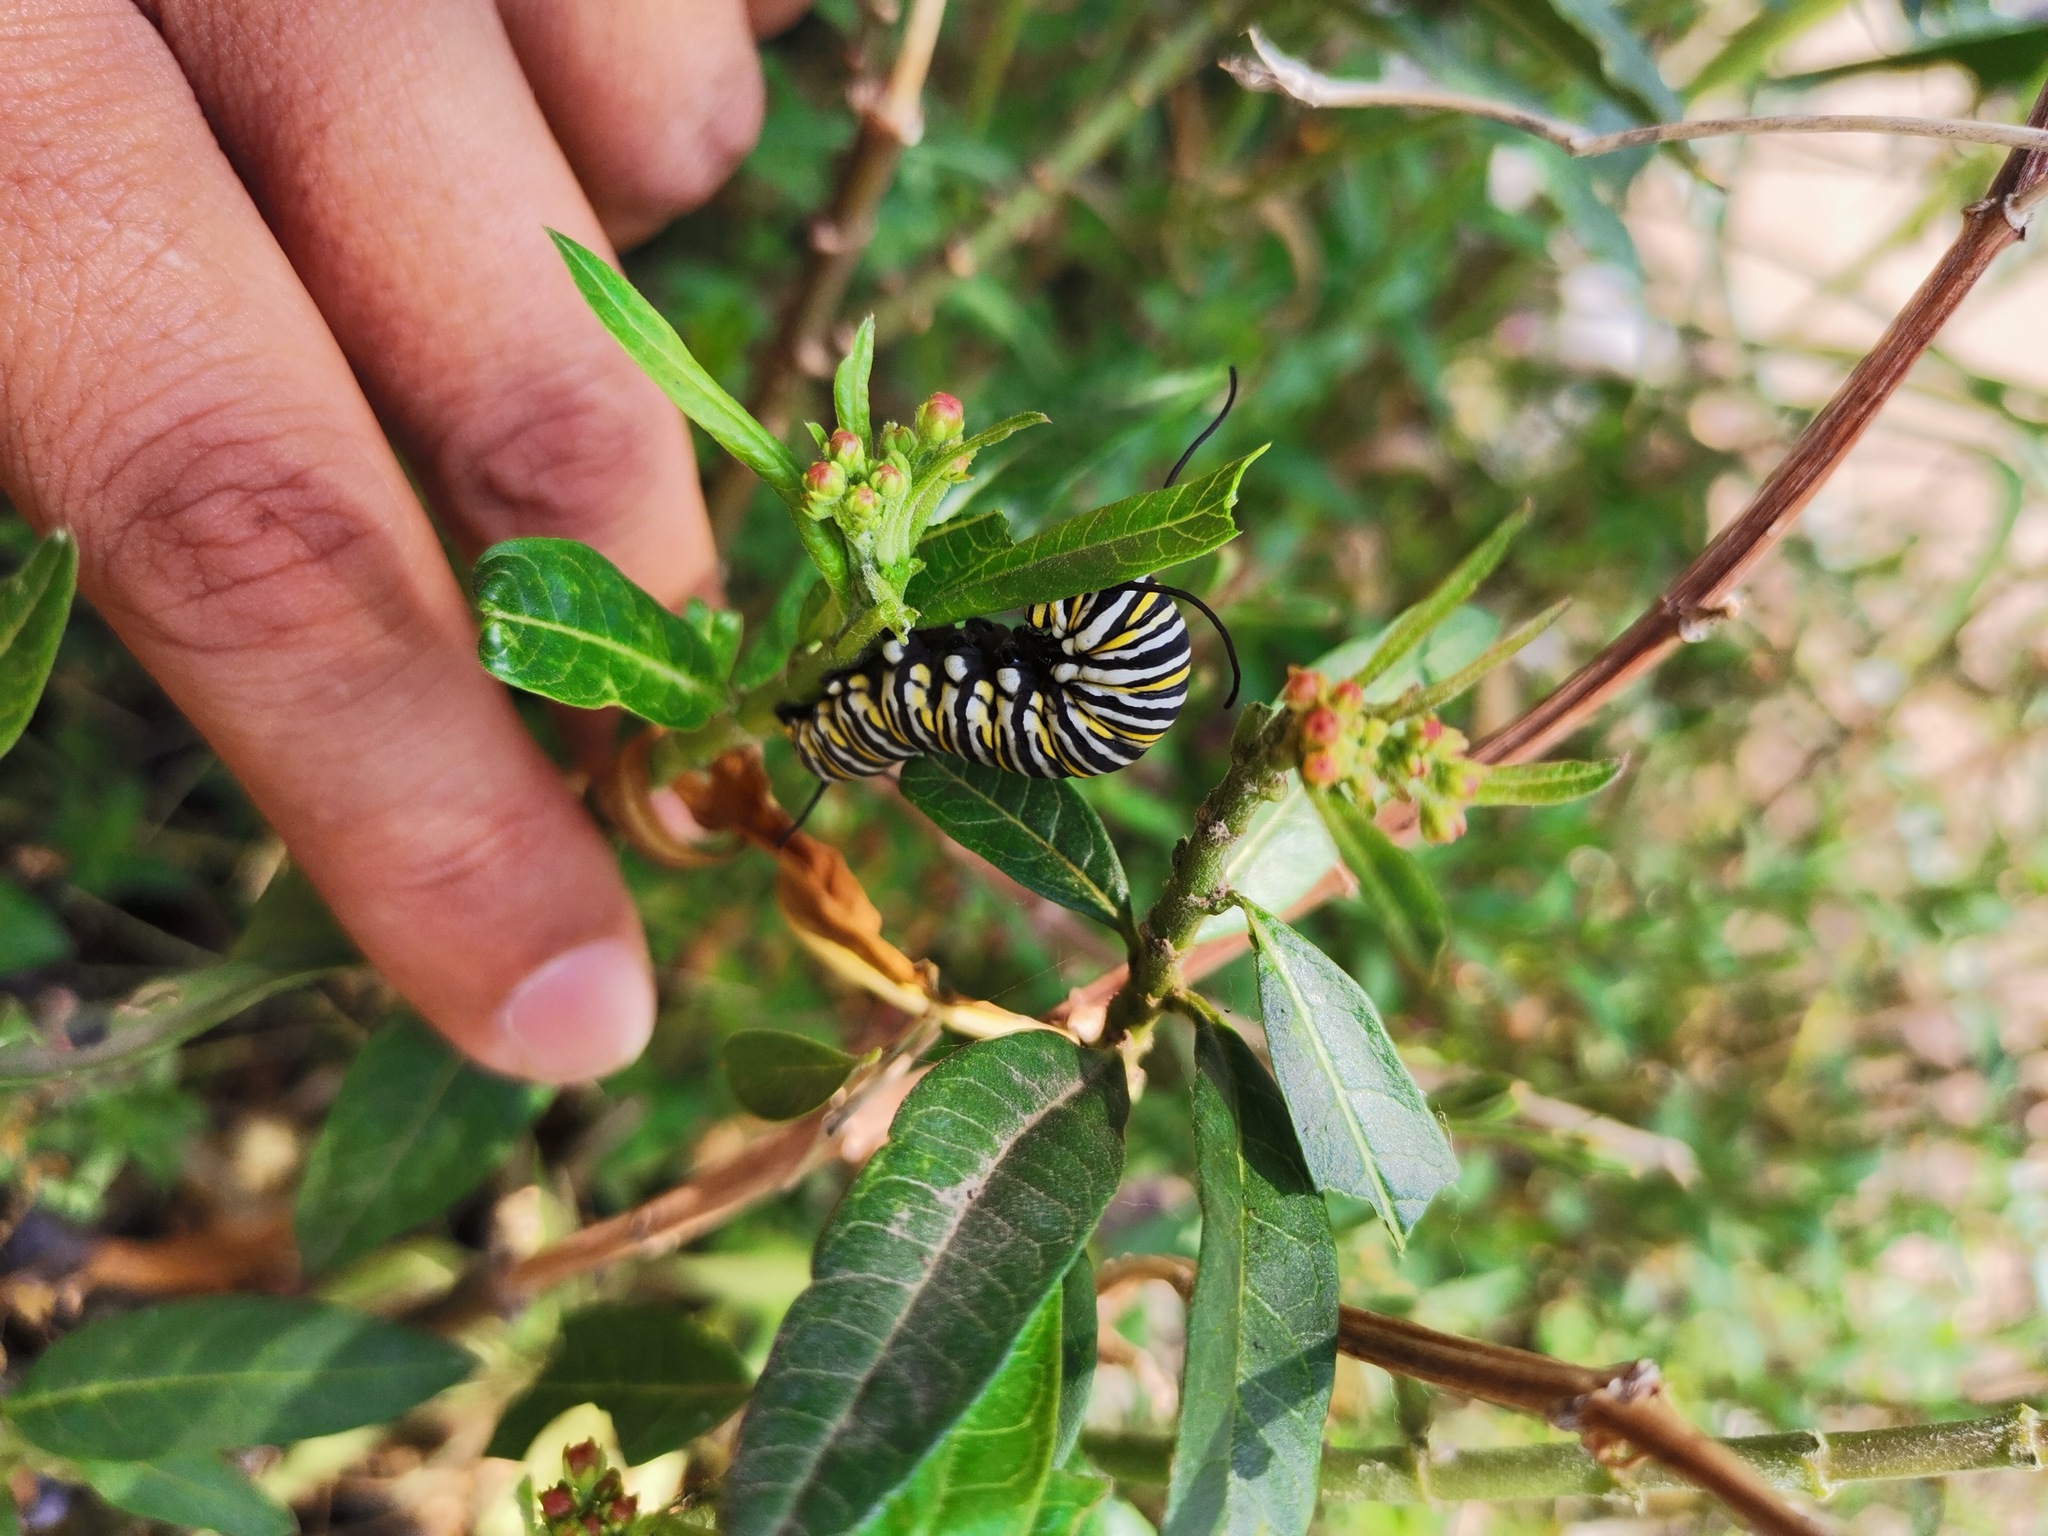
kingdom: Animalia
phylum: Arthropoda
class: Insecta
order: Lepidoptera
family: Nymphalidae
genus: Danaus
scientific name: Danaus plexippus
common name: Monarch
